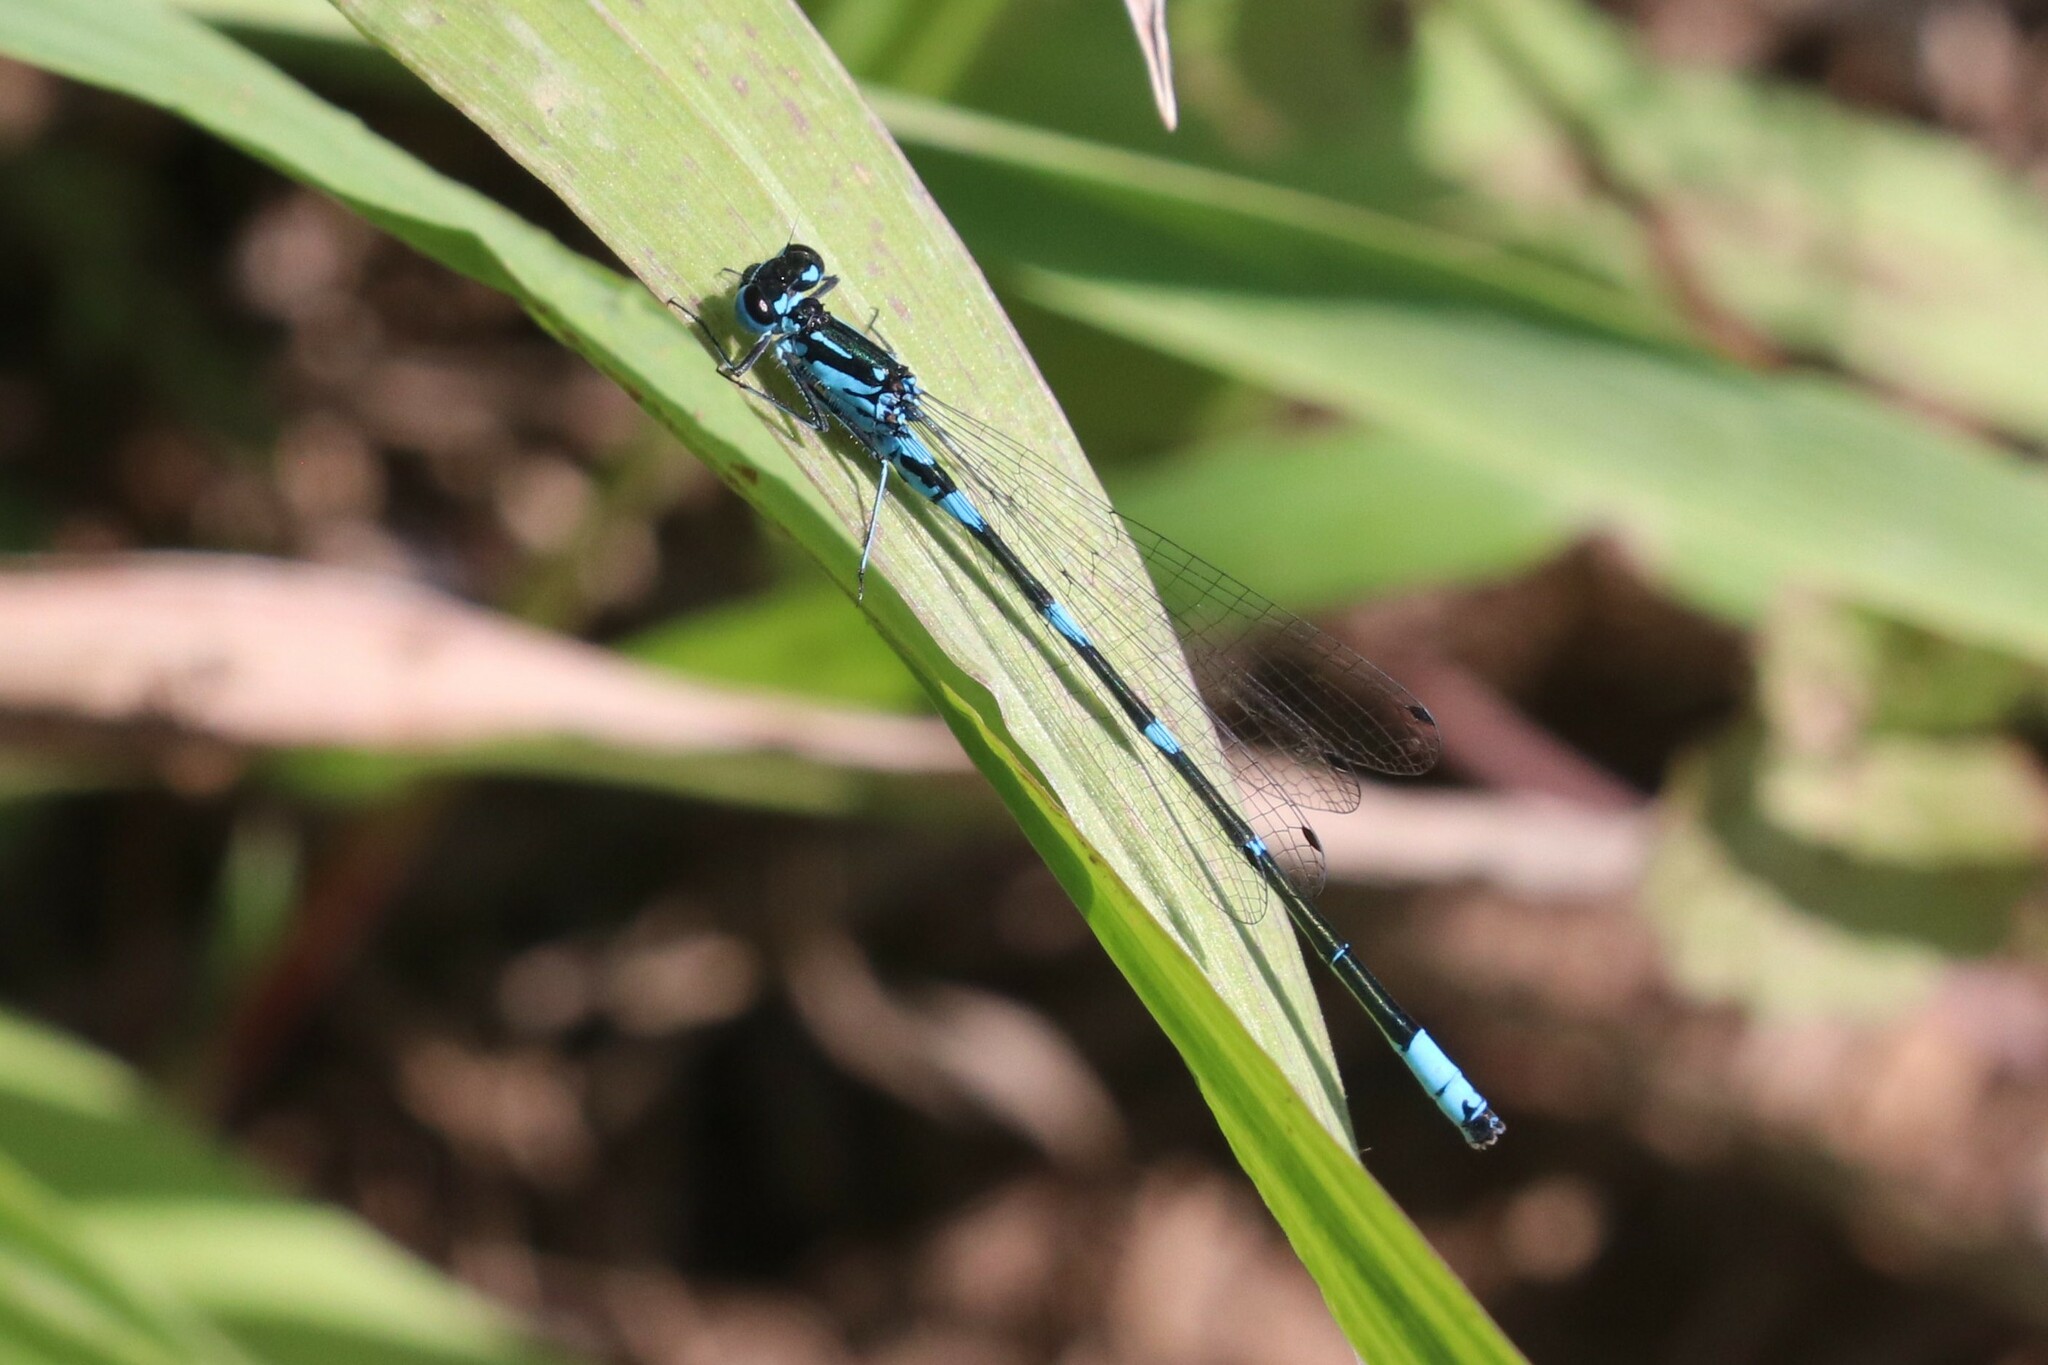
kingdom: Animalia
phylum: Arthropoda
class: Insecta
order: Odonata
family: Coenagrionidae
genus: Coenagrion
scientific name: Coenagrion pulchellum
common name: Variable bluet
